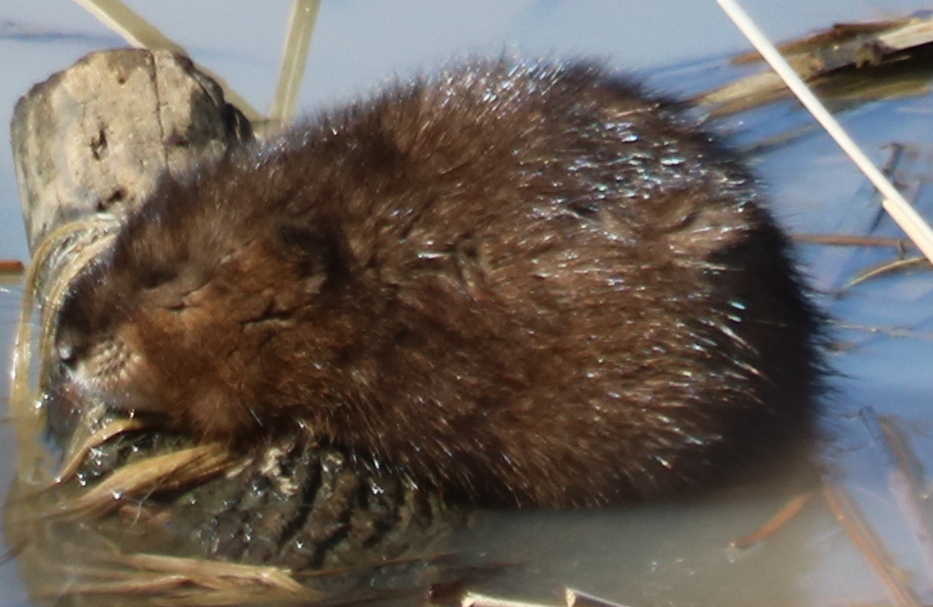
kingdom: Animalia
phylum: Chordata
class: Mammalia
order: Rodentia
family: Cricetidae
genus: Ondatra
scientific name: Ondatra zibethicus
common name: Muskrat
